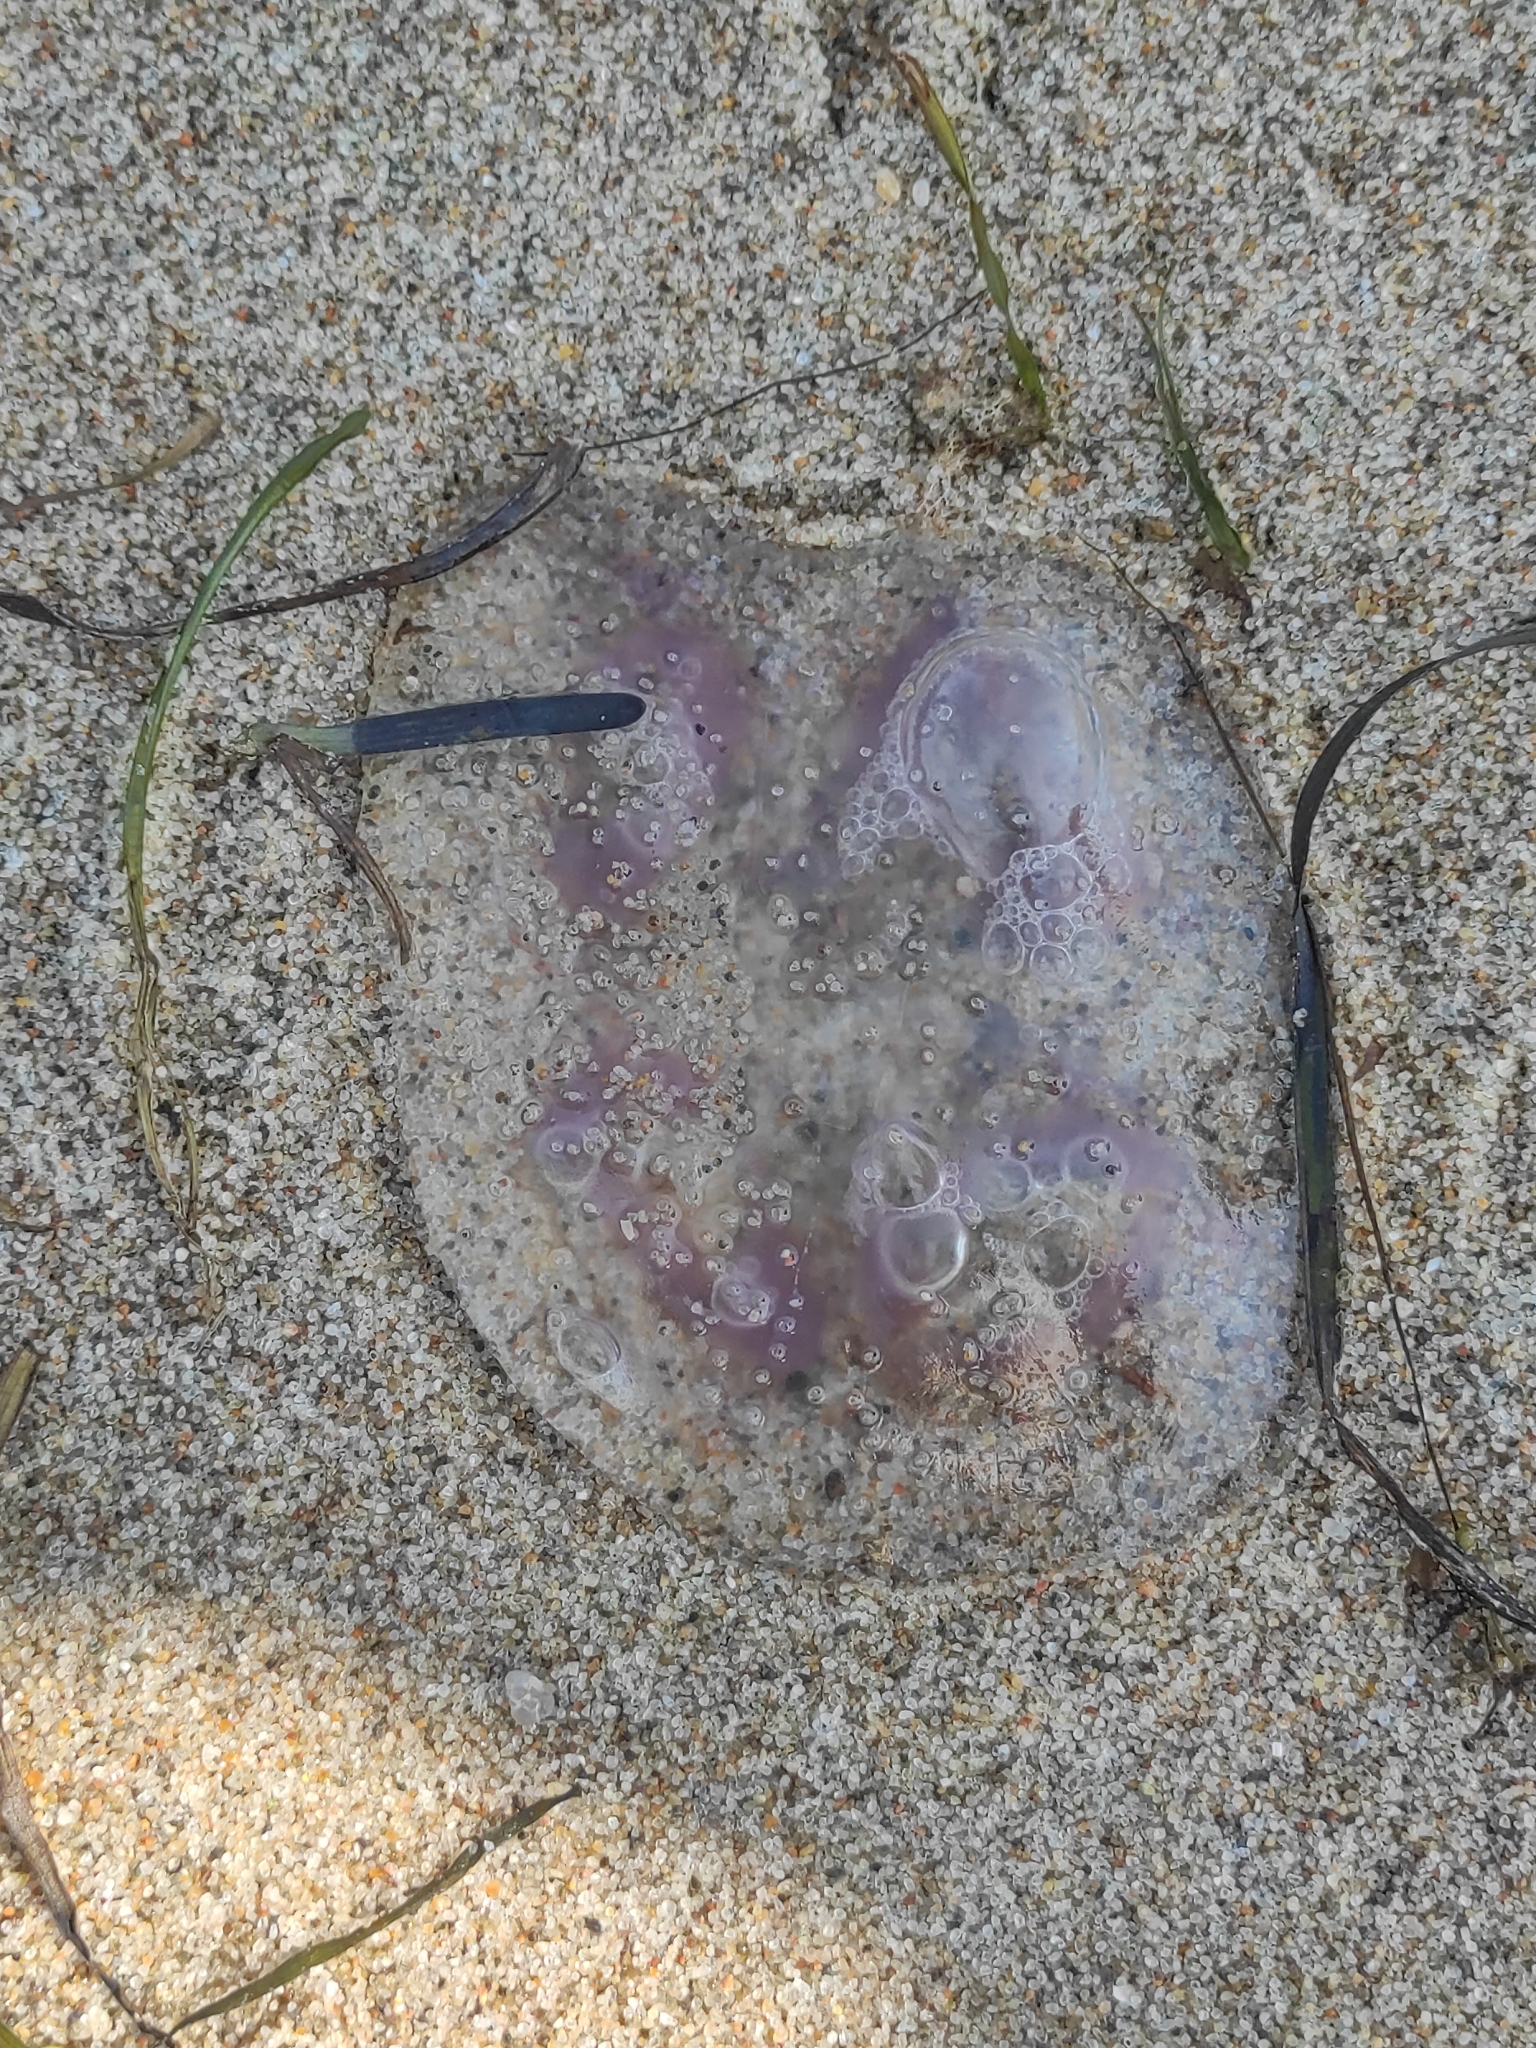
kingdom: Animalia
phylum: Cnidaria
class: Scyphozoa
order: Semaeostomeae
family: Ulmaridae
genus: Aurelia
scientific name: Aurelia aurita
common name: Moon jellyfish
